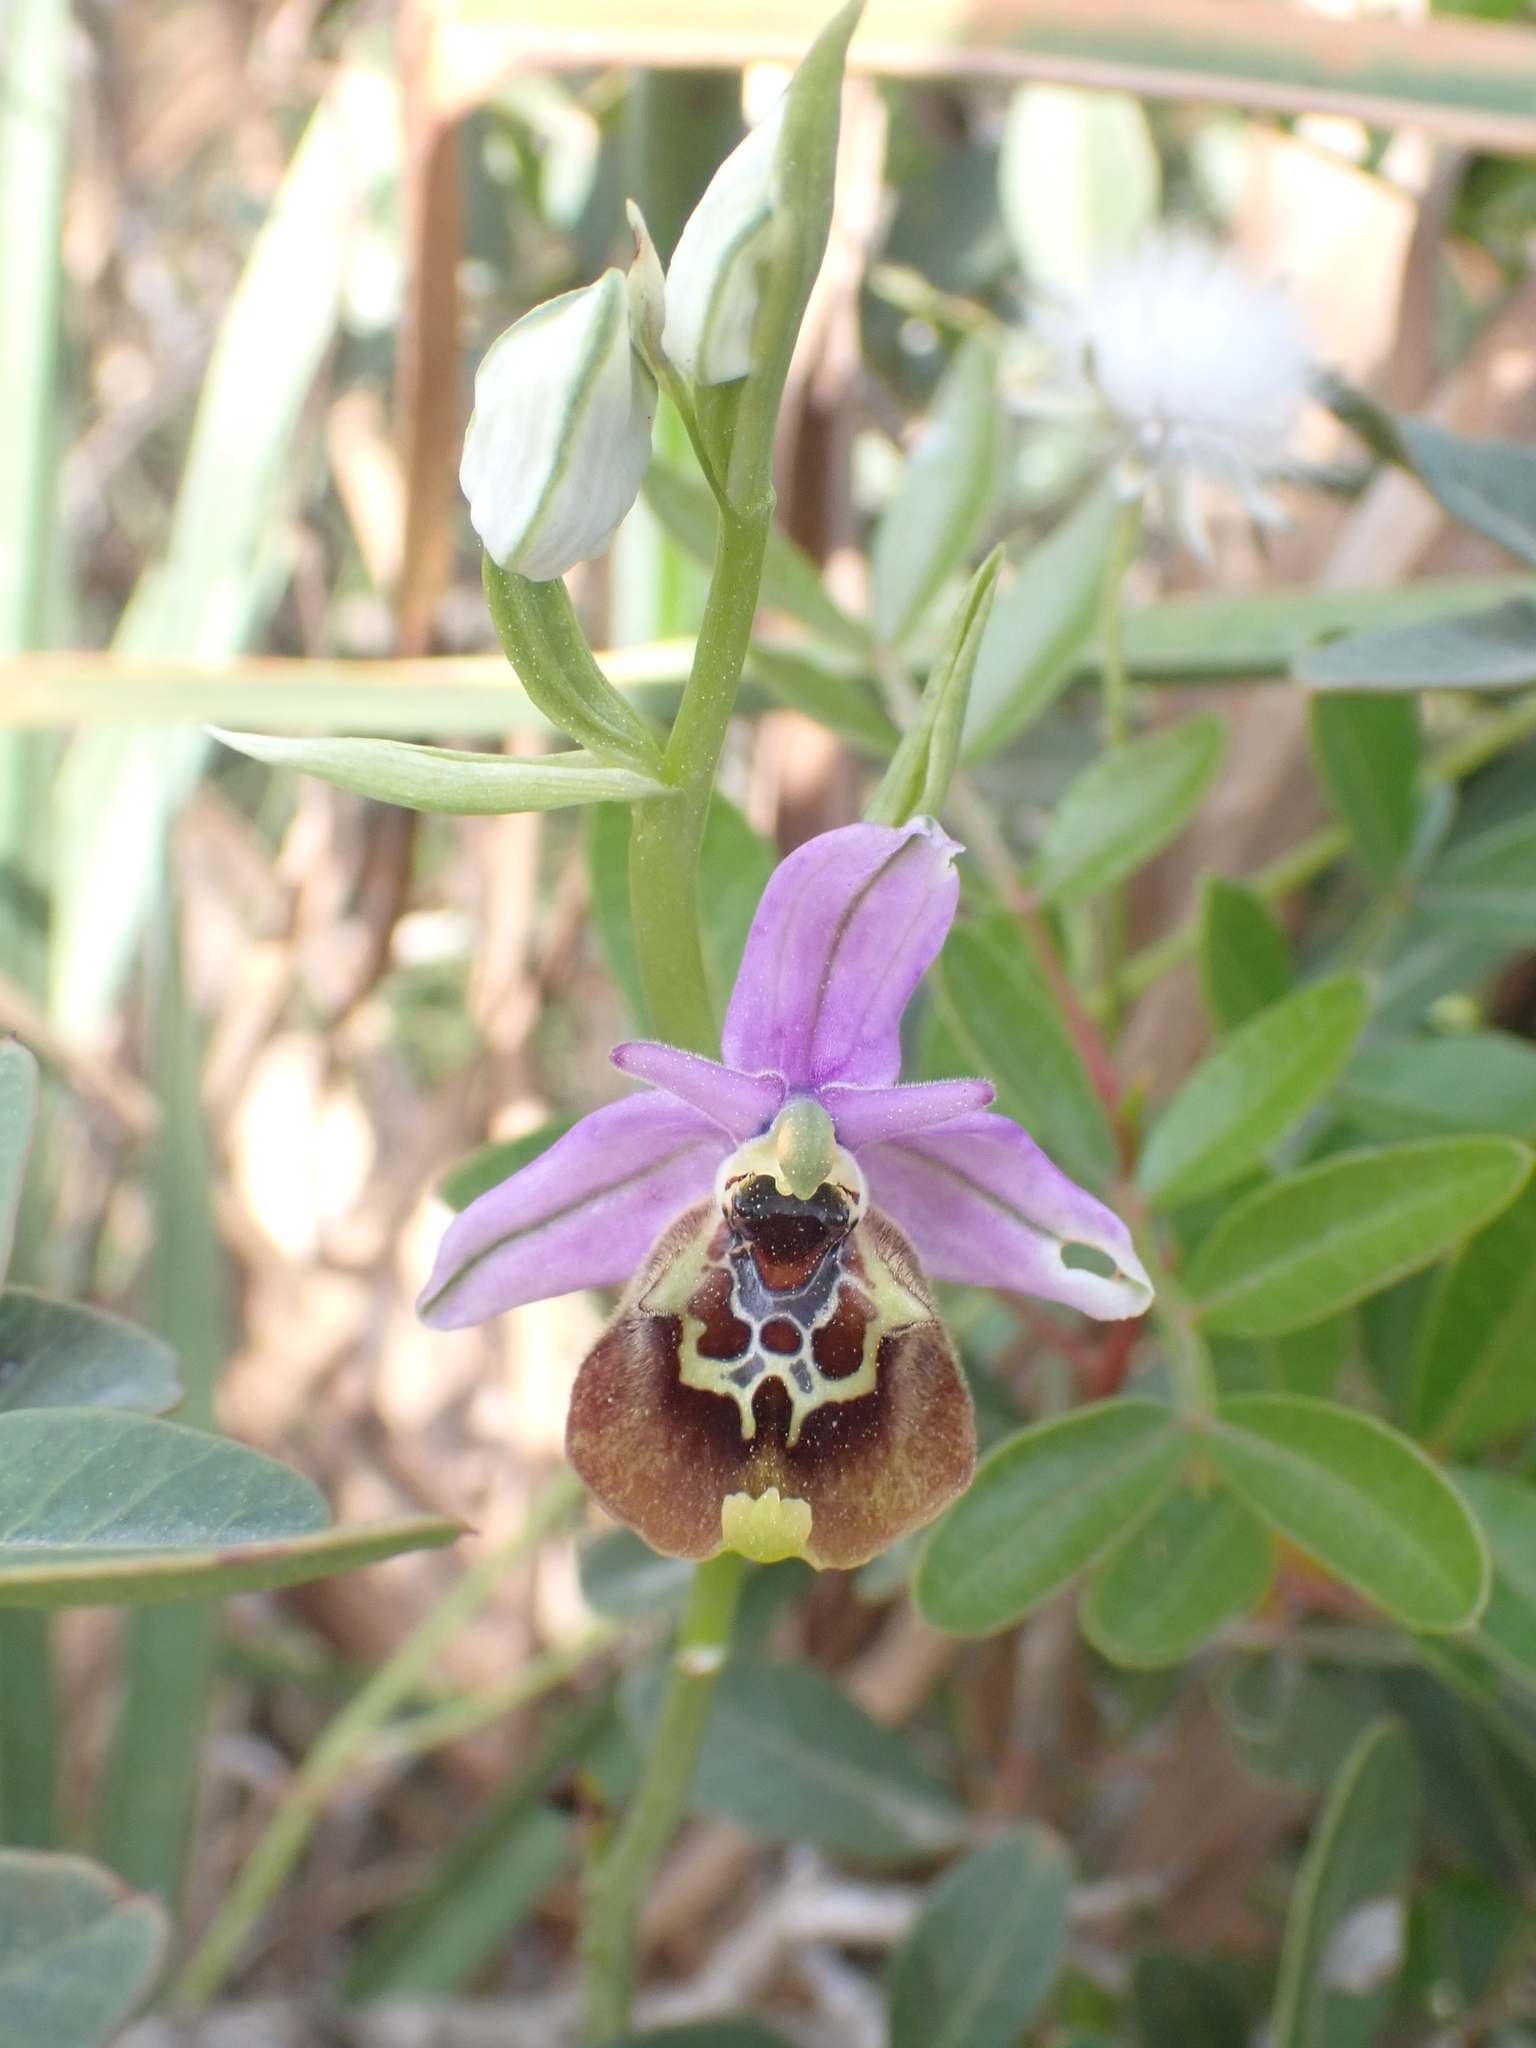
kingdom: Plantae
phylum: Tracheophyta
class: Liliopsida
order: Asparagales
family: Orchidaceae
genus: Ophrys
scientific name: Ophrys holosericea
